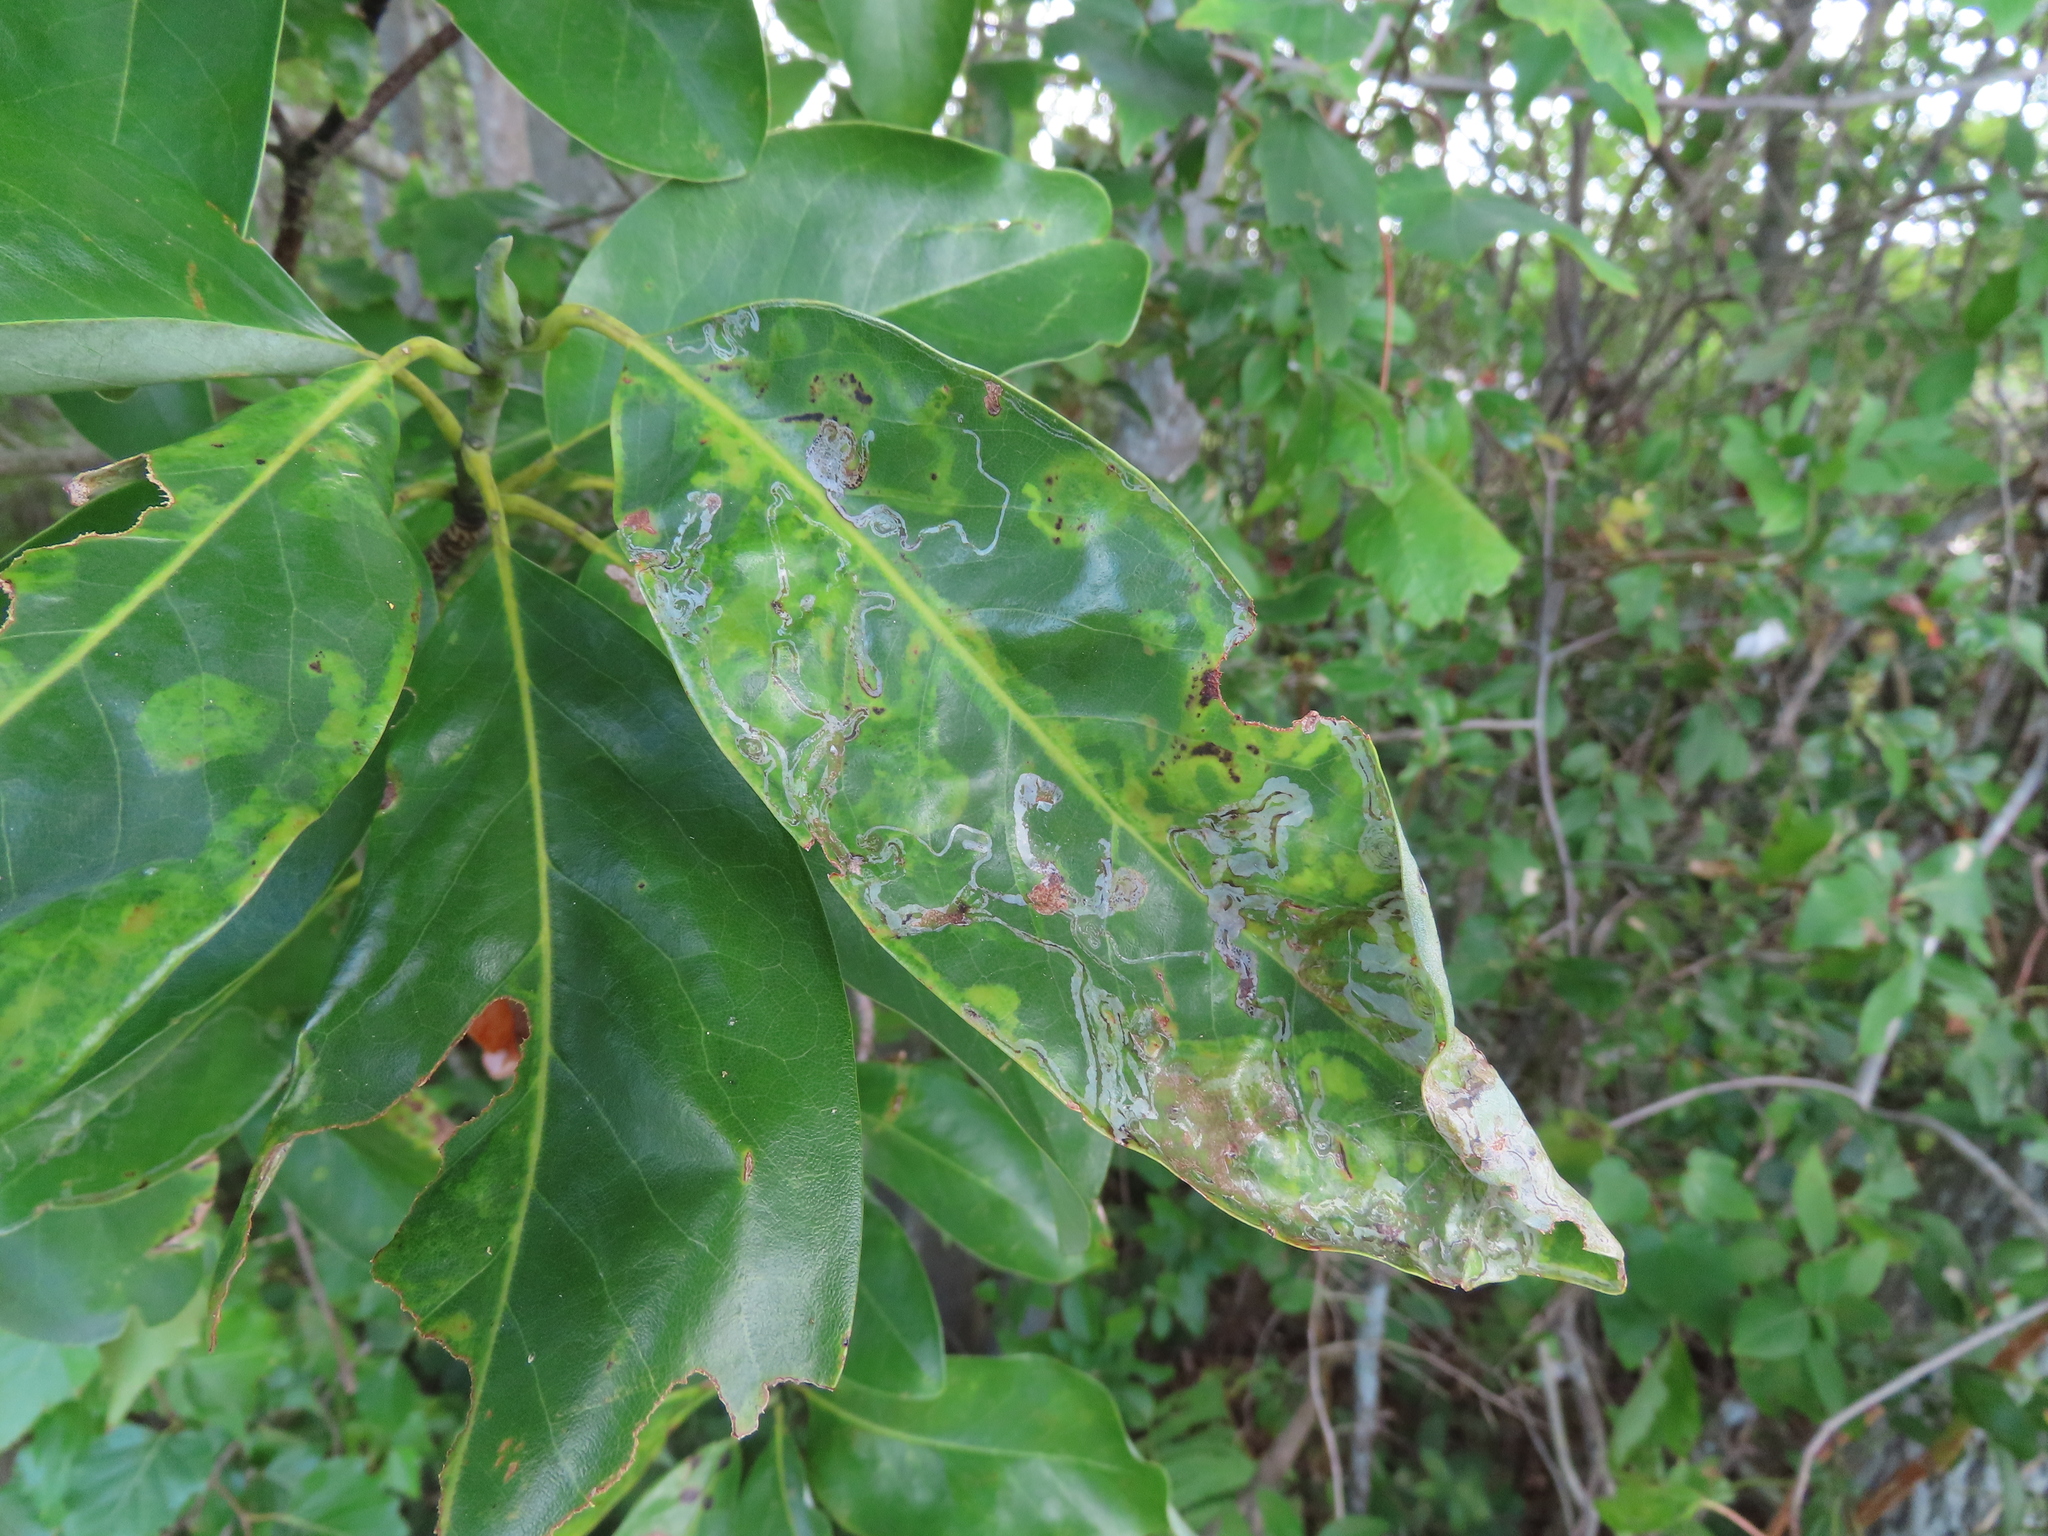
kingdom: Plantae
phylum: Tracheophyta
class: Magnoliopsida
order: Magnoliales
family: Magnoliaceae
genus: Magnolia
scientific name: Magnolia virginiana
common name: Swamp bay
